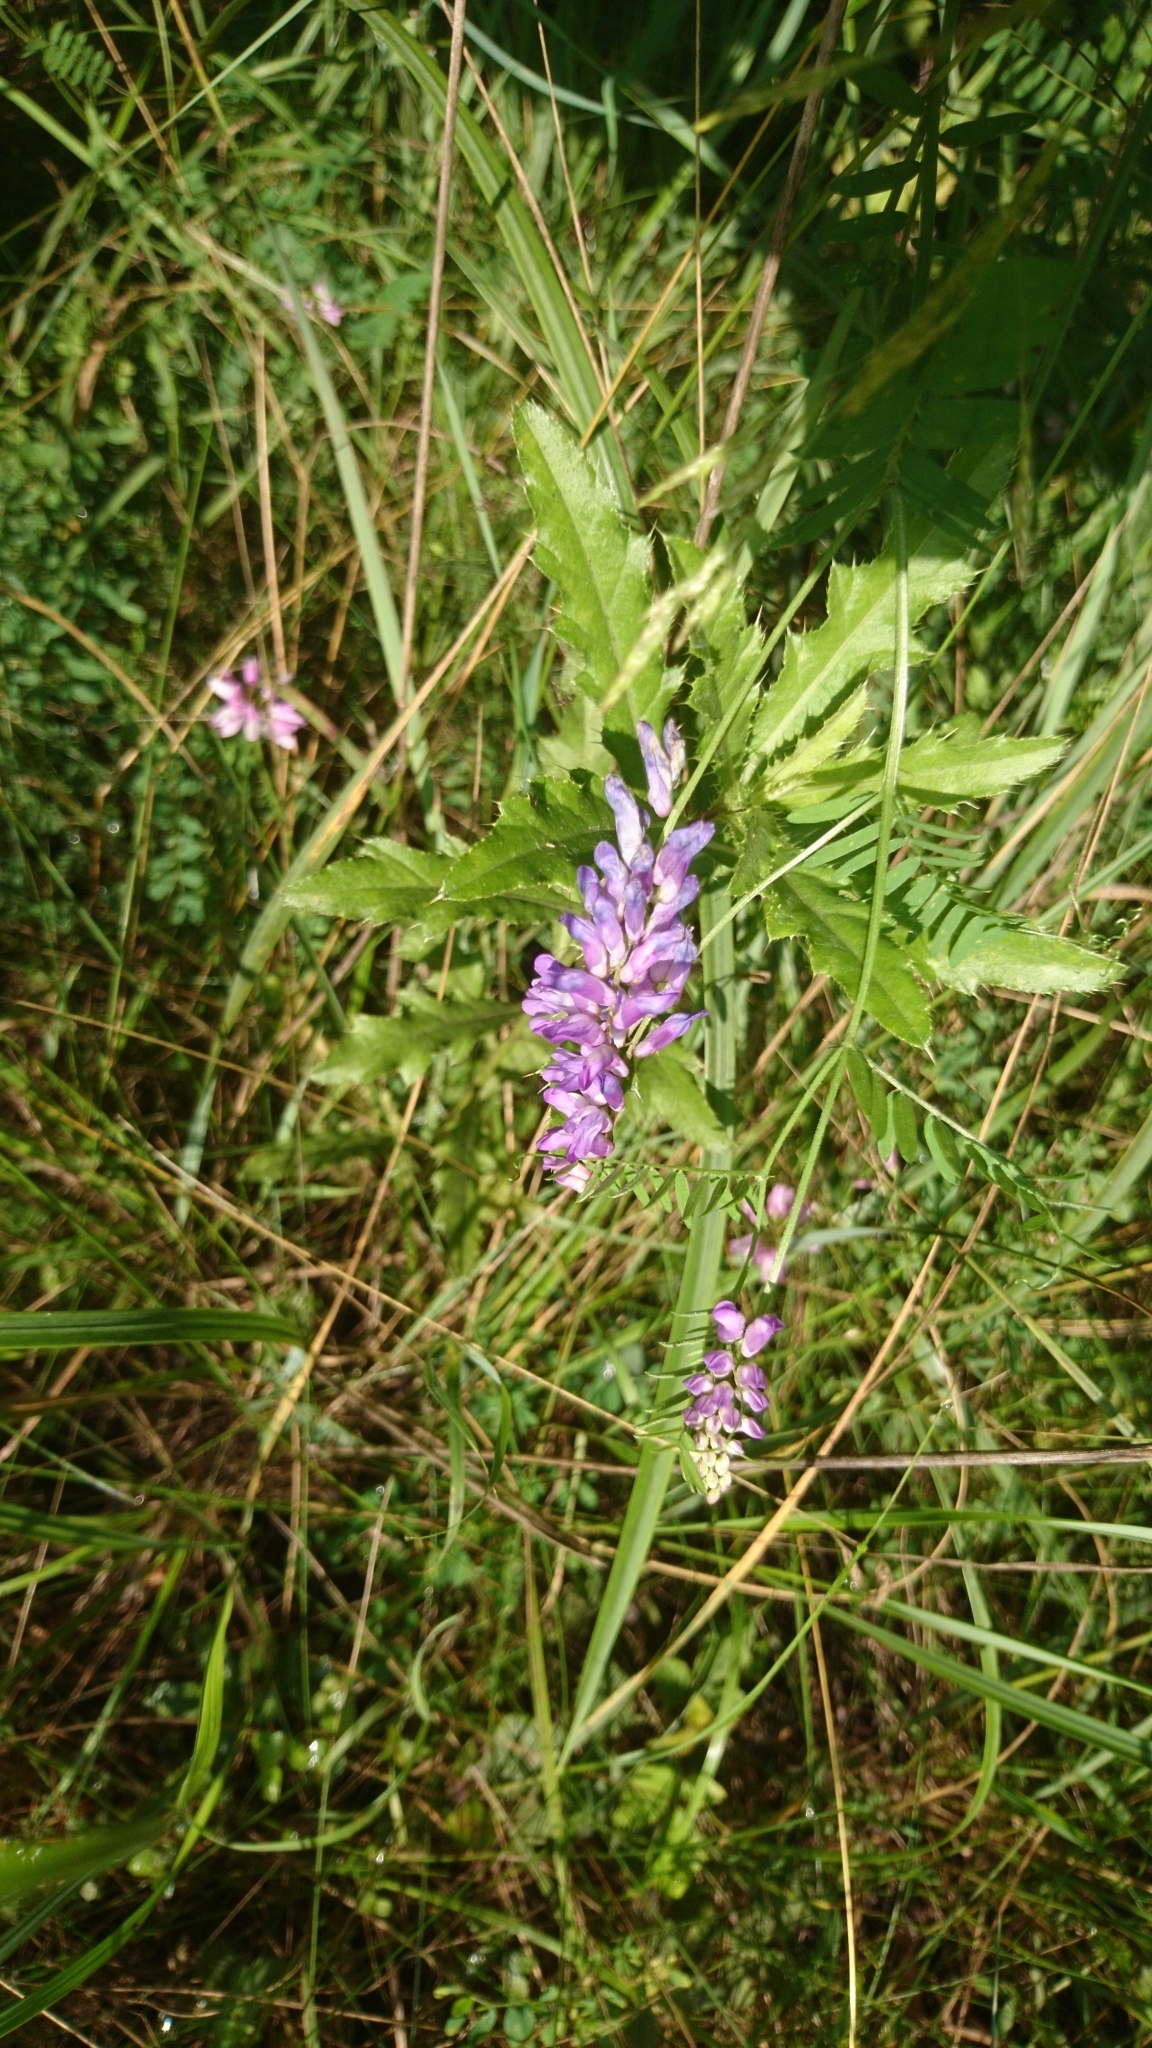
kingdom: Plantae
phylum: Tracheophyta
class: Magnoliopsida
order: Fabales
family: Fabaceae
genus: Vicia
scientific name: Vicia cracca
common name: Bird vetch
